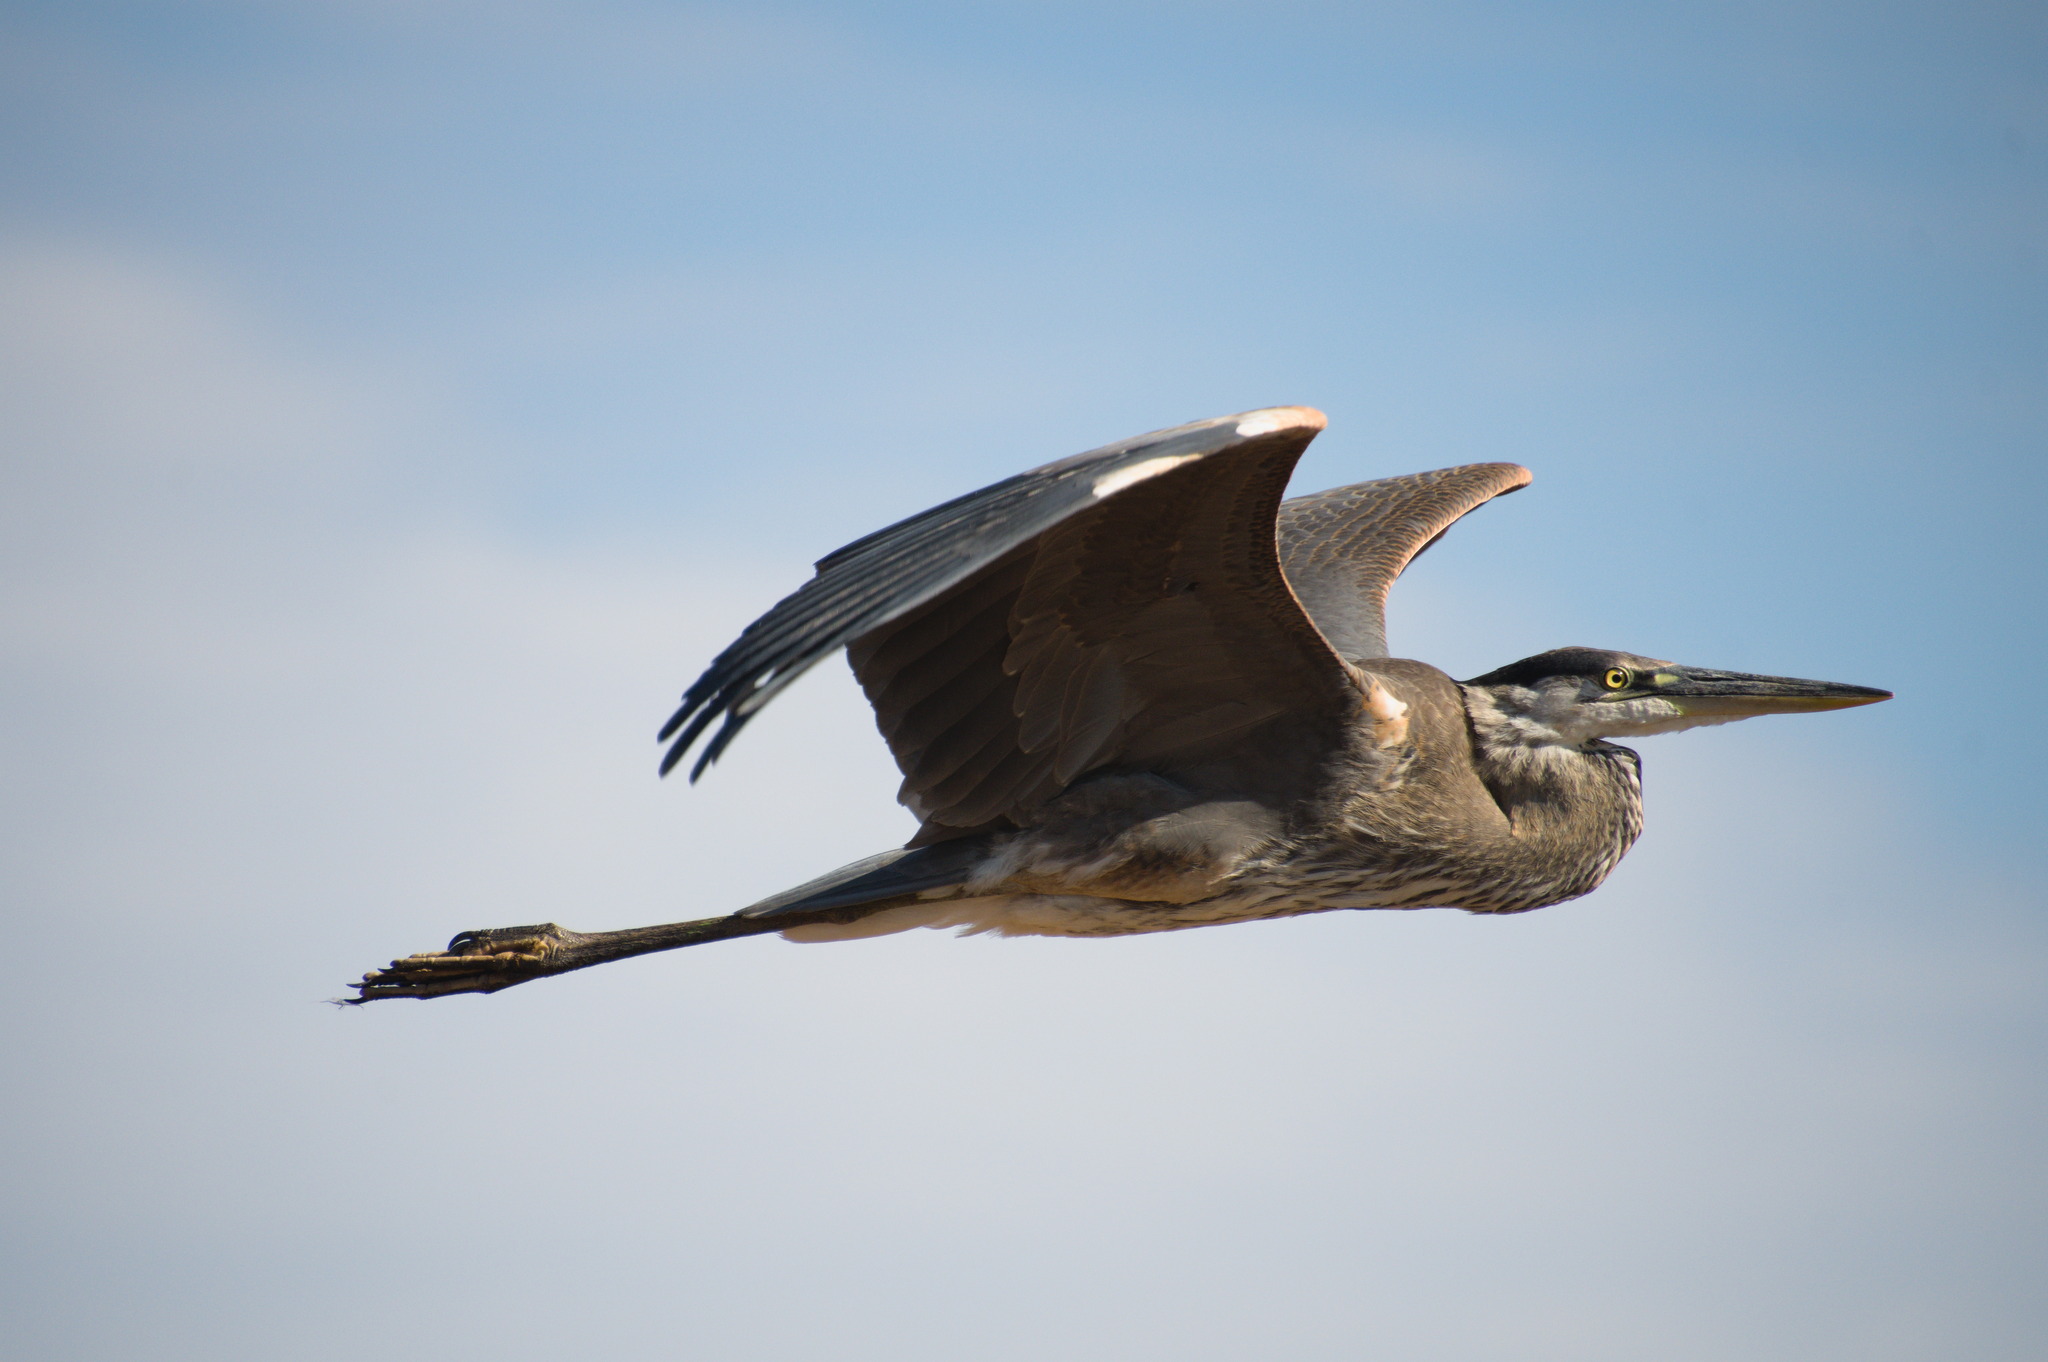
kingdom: Animalia
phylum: Chordata
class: Aves
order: Pelecaniformes
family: Ardeidae
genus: Ardea
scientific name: Ardea herodias
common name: Great blue heron
